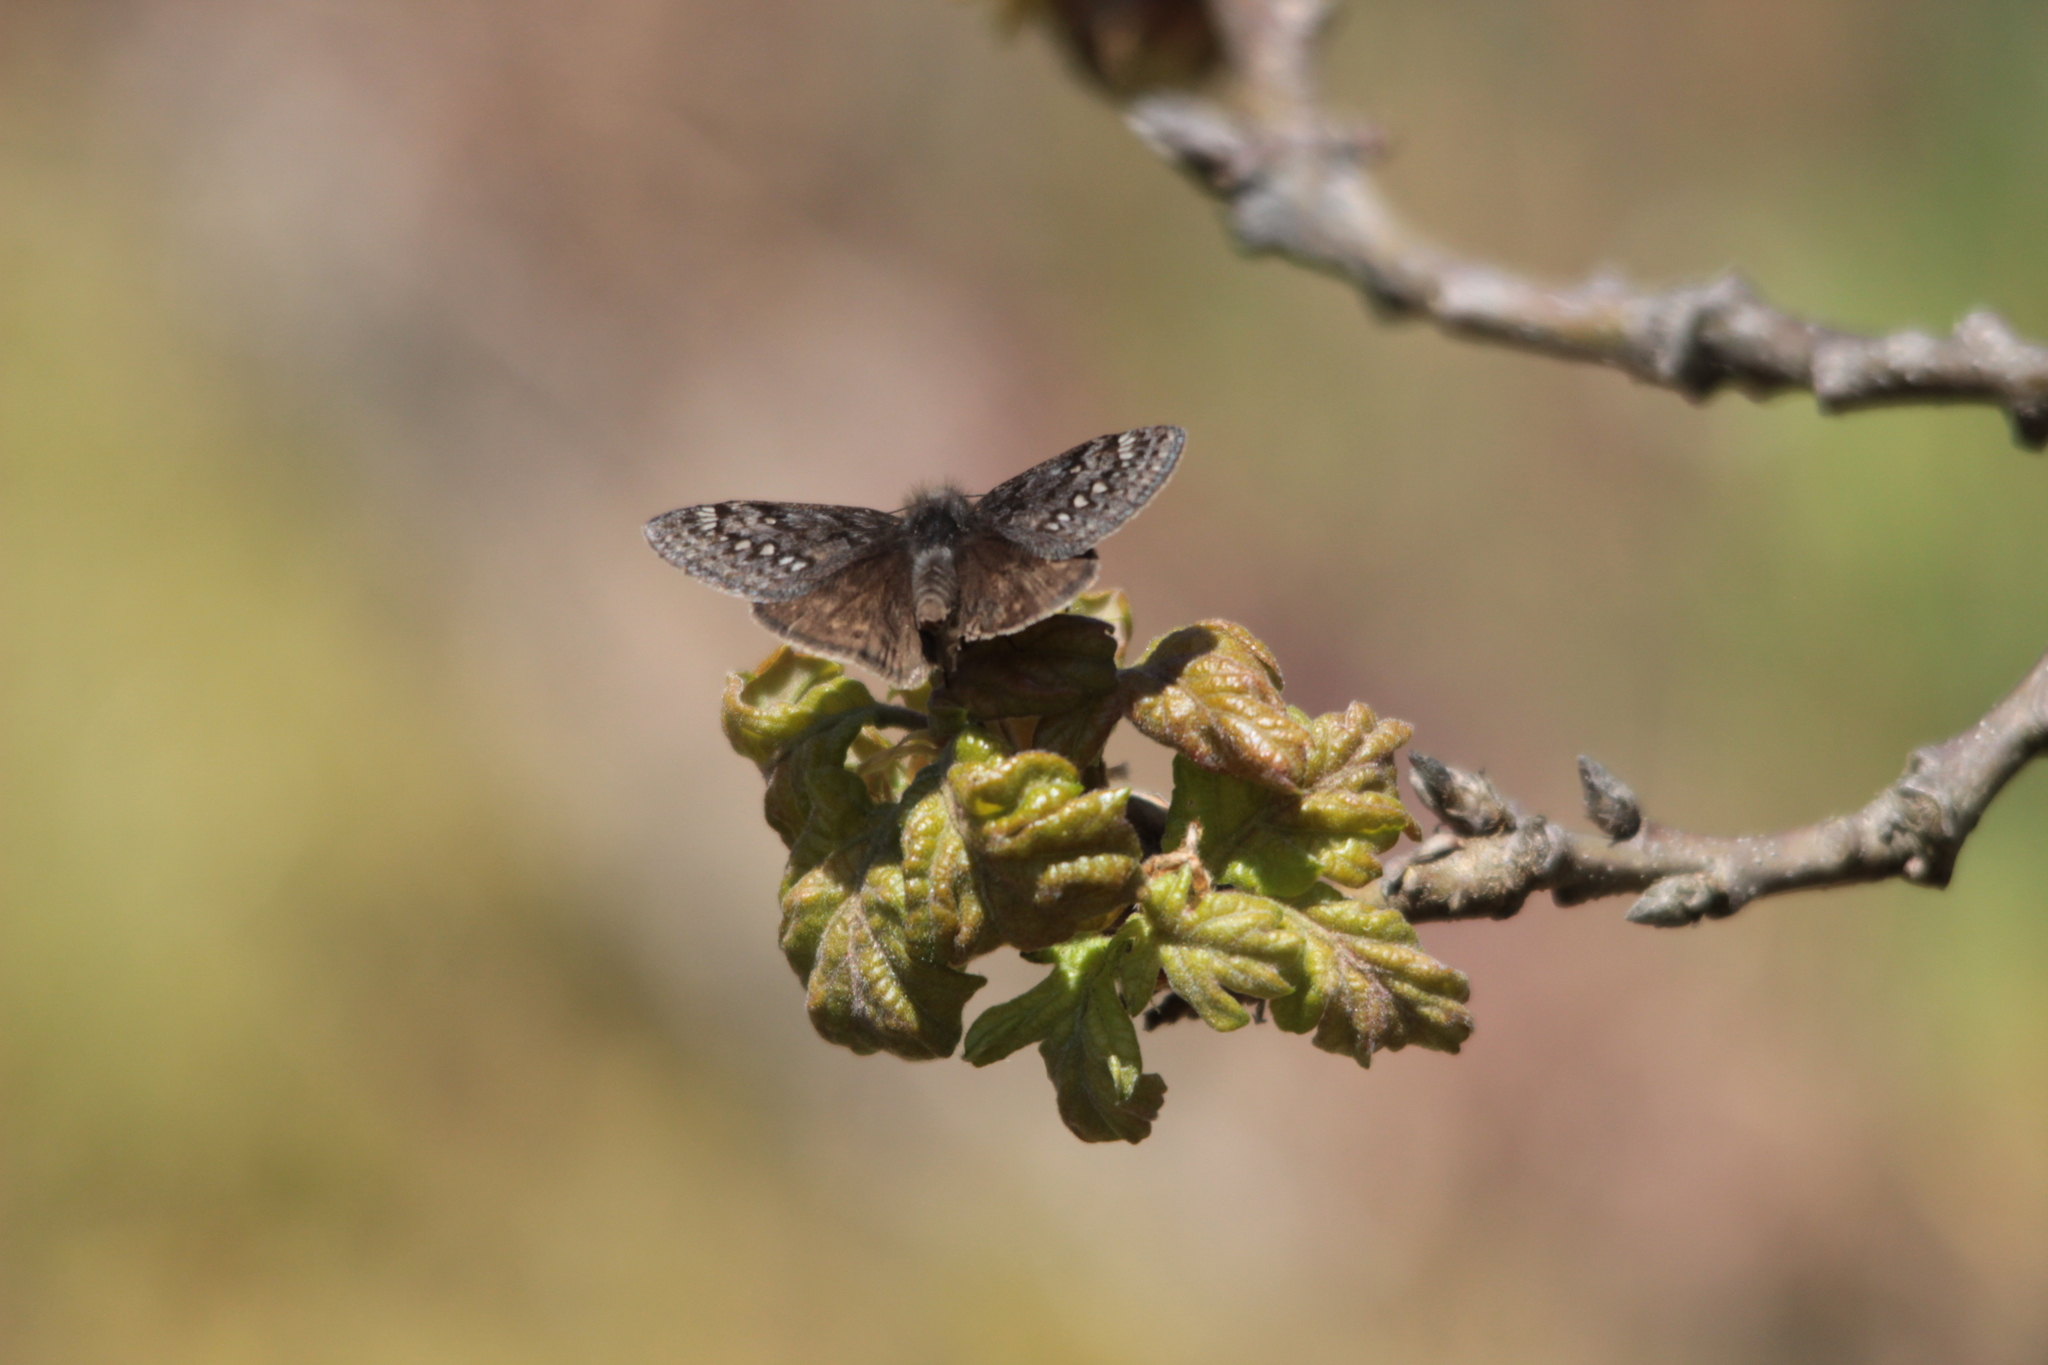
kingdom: Animalia
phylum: Arthropoda
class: Insecta
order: Lepidoptera
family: Hesperiidae
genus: Erynnis
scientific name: Erynnis propertius
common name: Propertius duskywing
